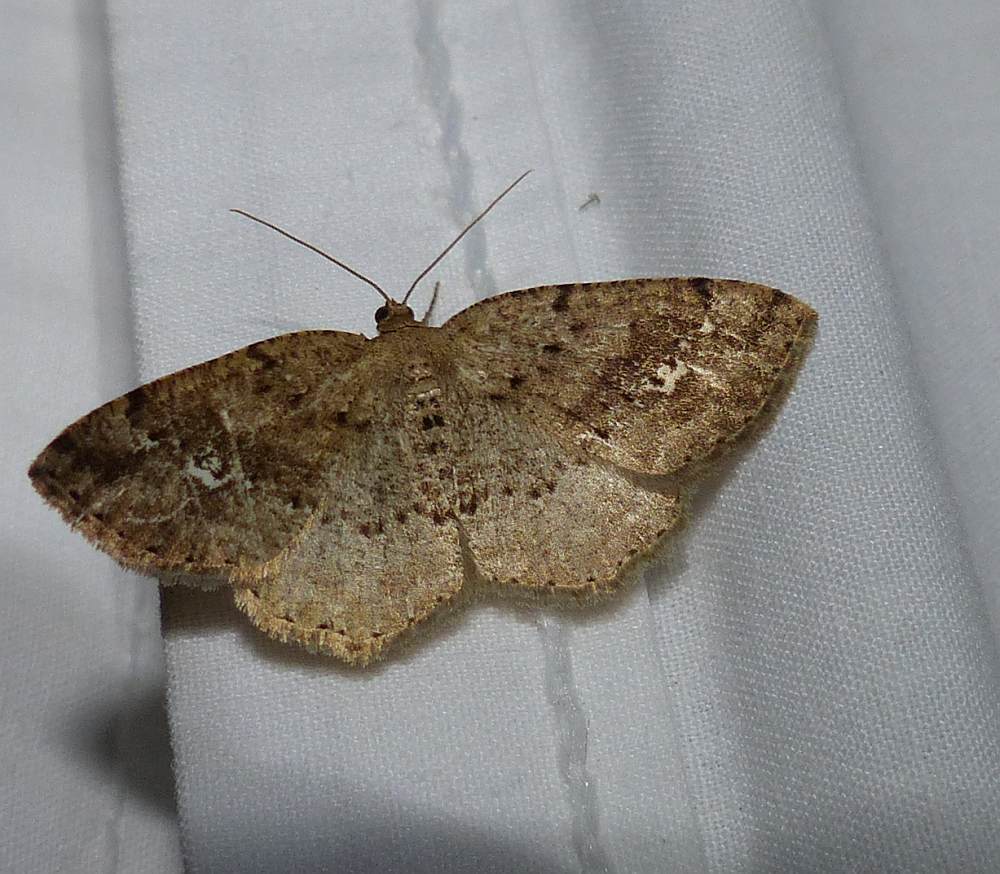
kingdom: Animalia
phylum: Arthropoda
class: Insecta
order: Lepidoptera
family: Geometridae
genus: Homochlodes
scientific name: Homochlodes fritillaria
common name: Pale homochlodes
